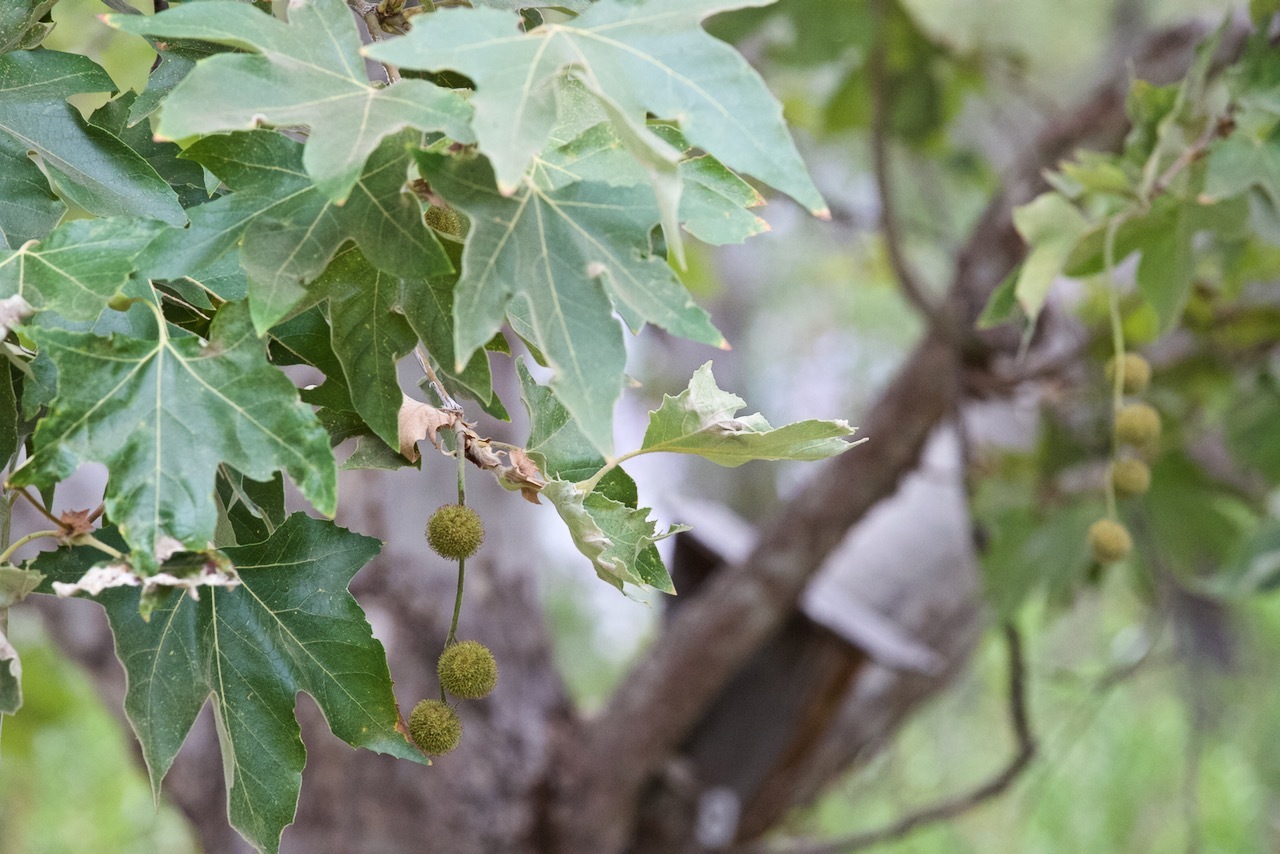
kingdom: Plantae
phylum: Tracheophyta
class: Magnoliopsida
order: Proteales
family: Platanaceae
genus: Platanus
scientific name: Platanus racemosa
